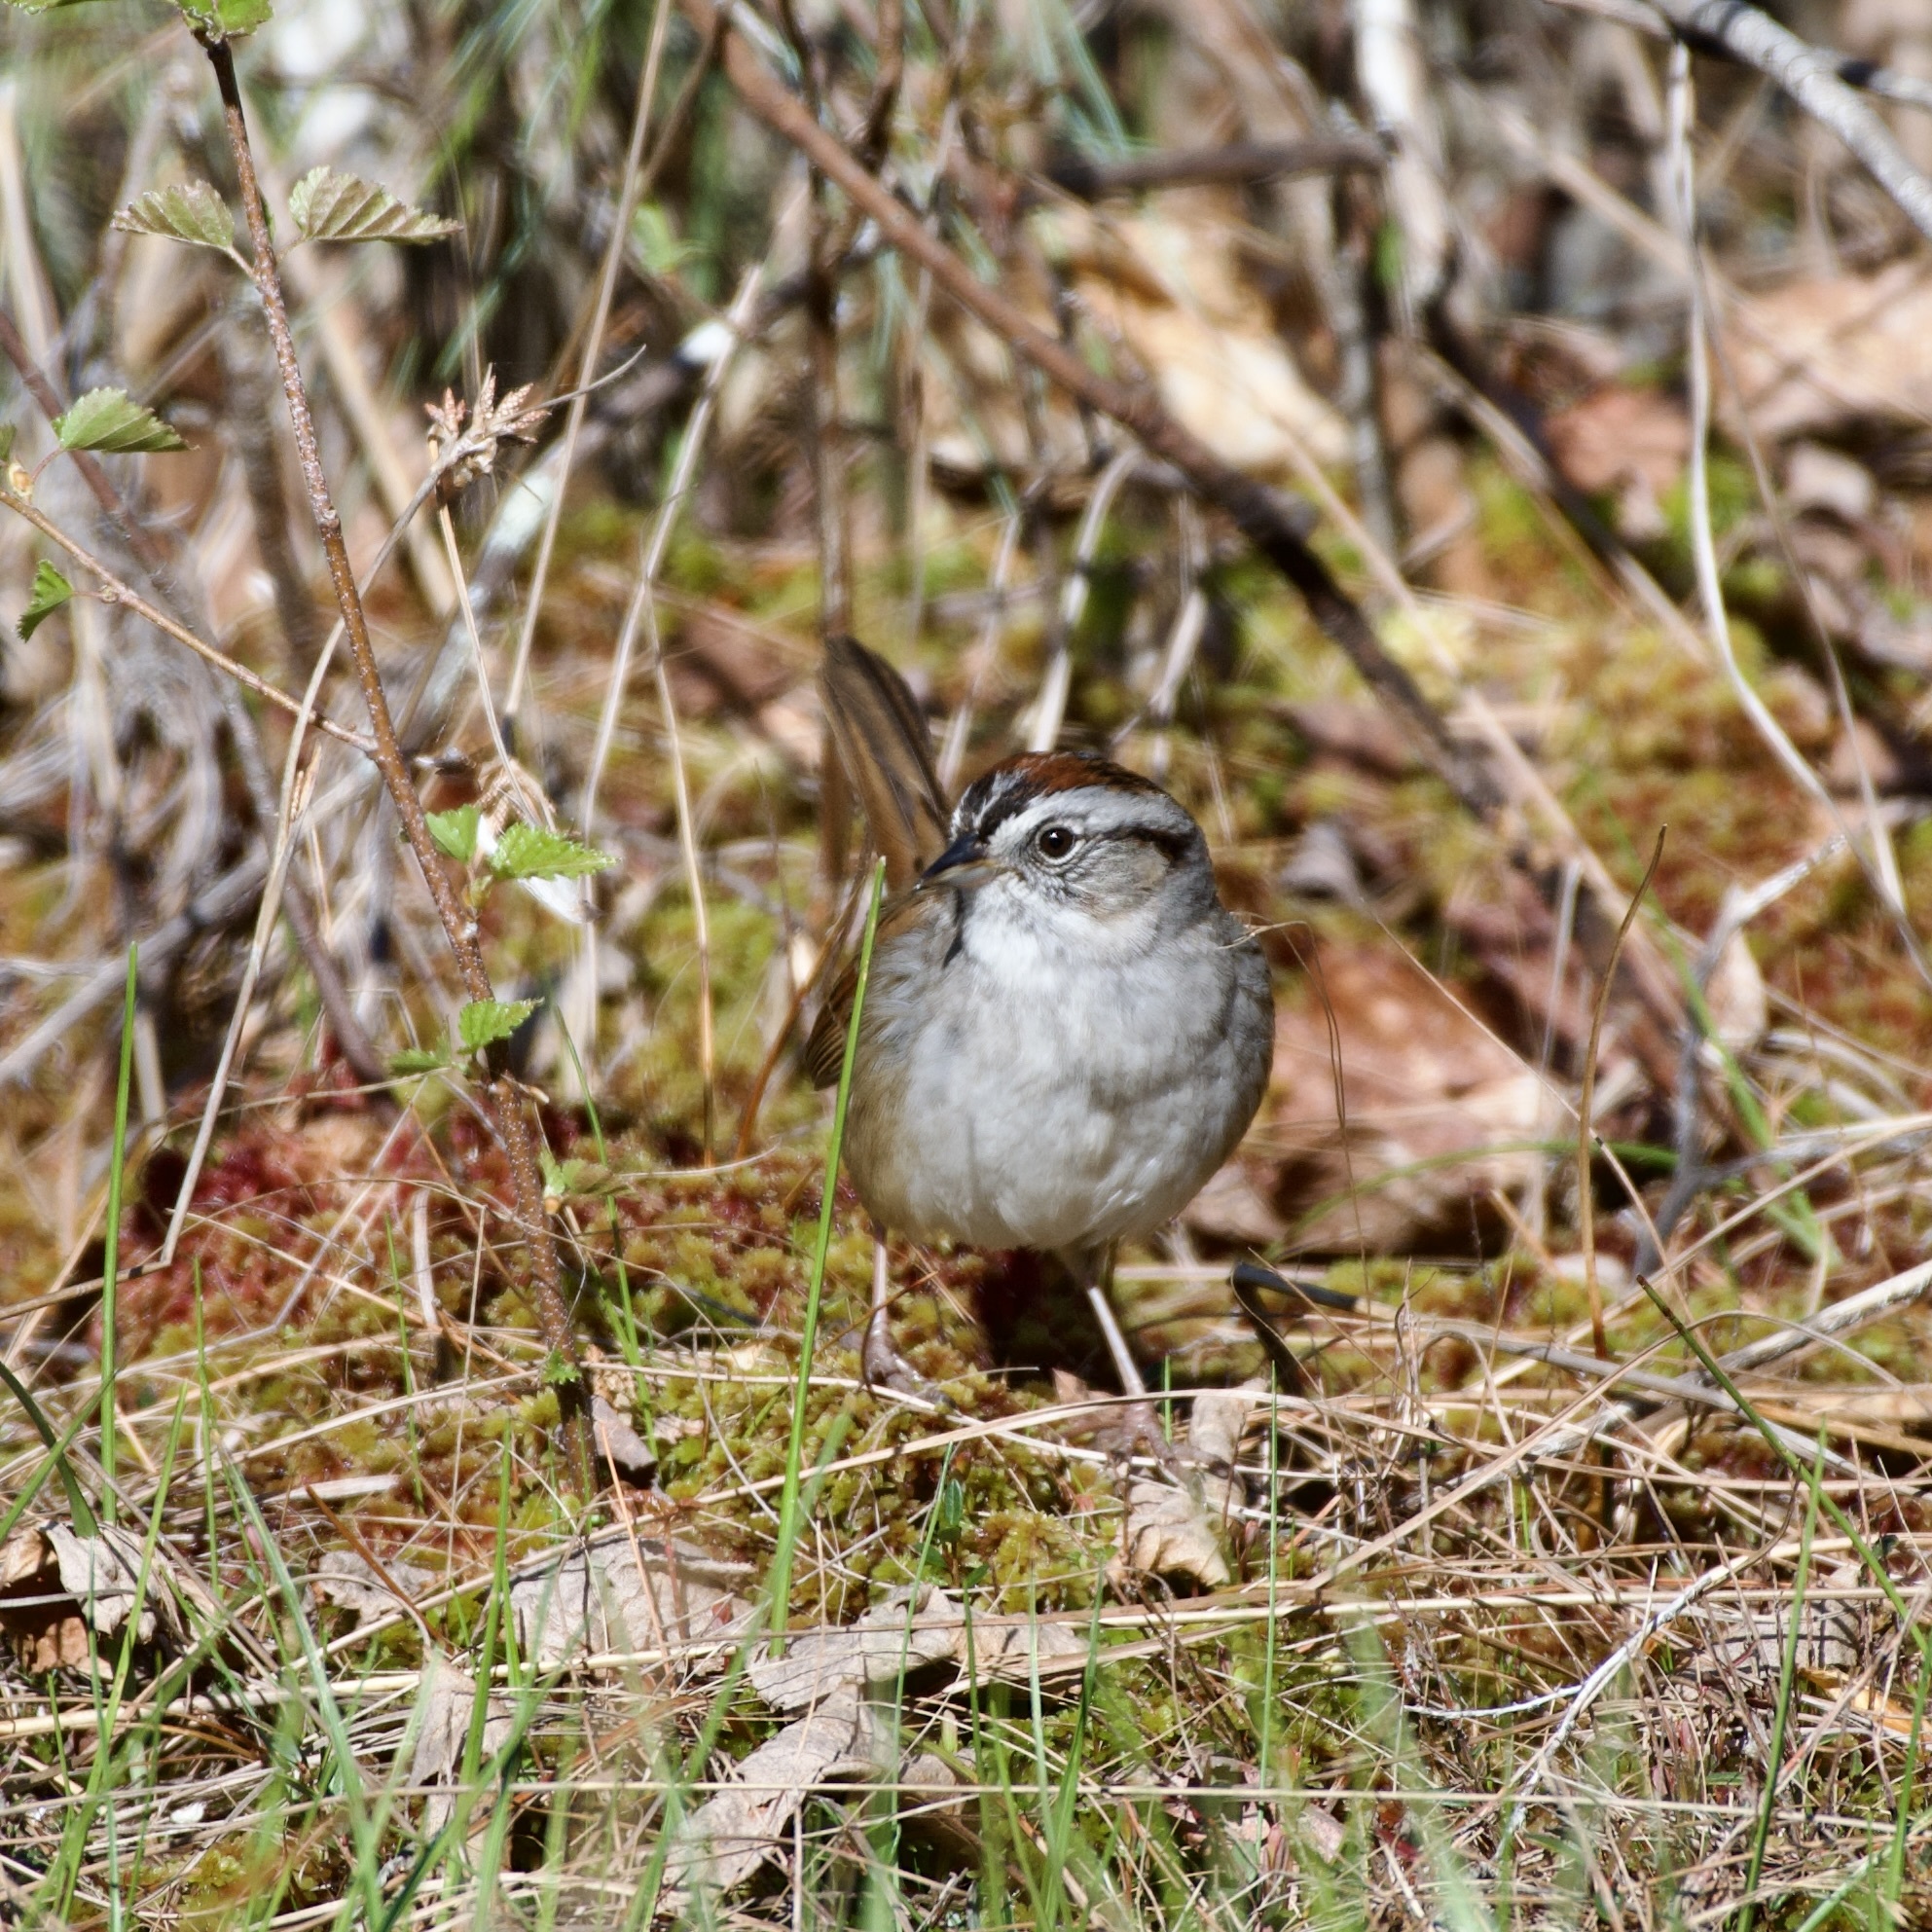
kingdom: Animalia
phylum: Chordata
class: Aves
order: Passeriformes
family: Passerellidae
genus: Melospiza
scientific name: Melospiza georgiana
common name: Swamp sparrow
